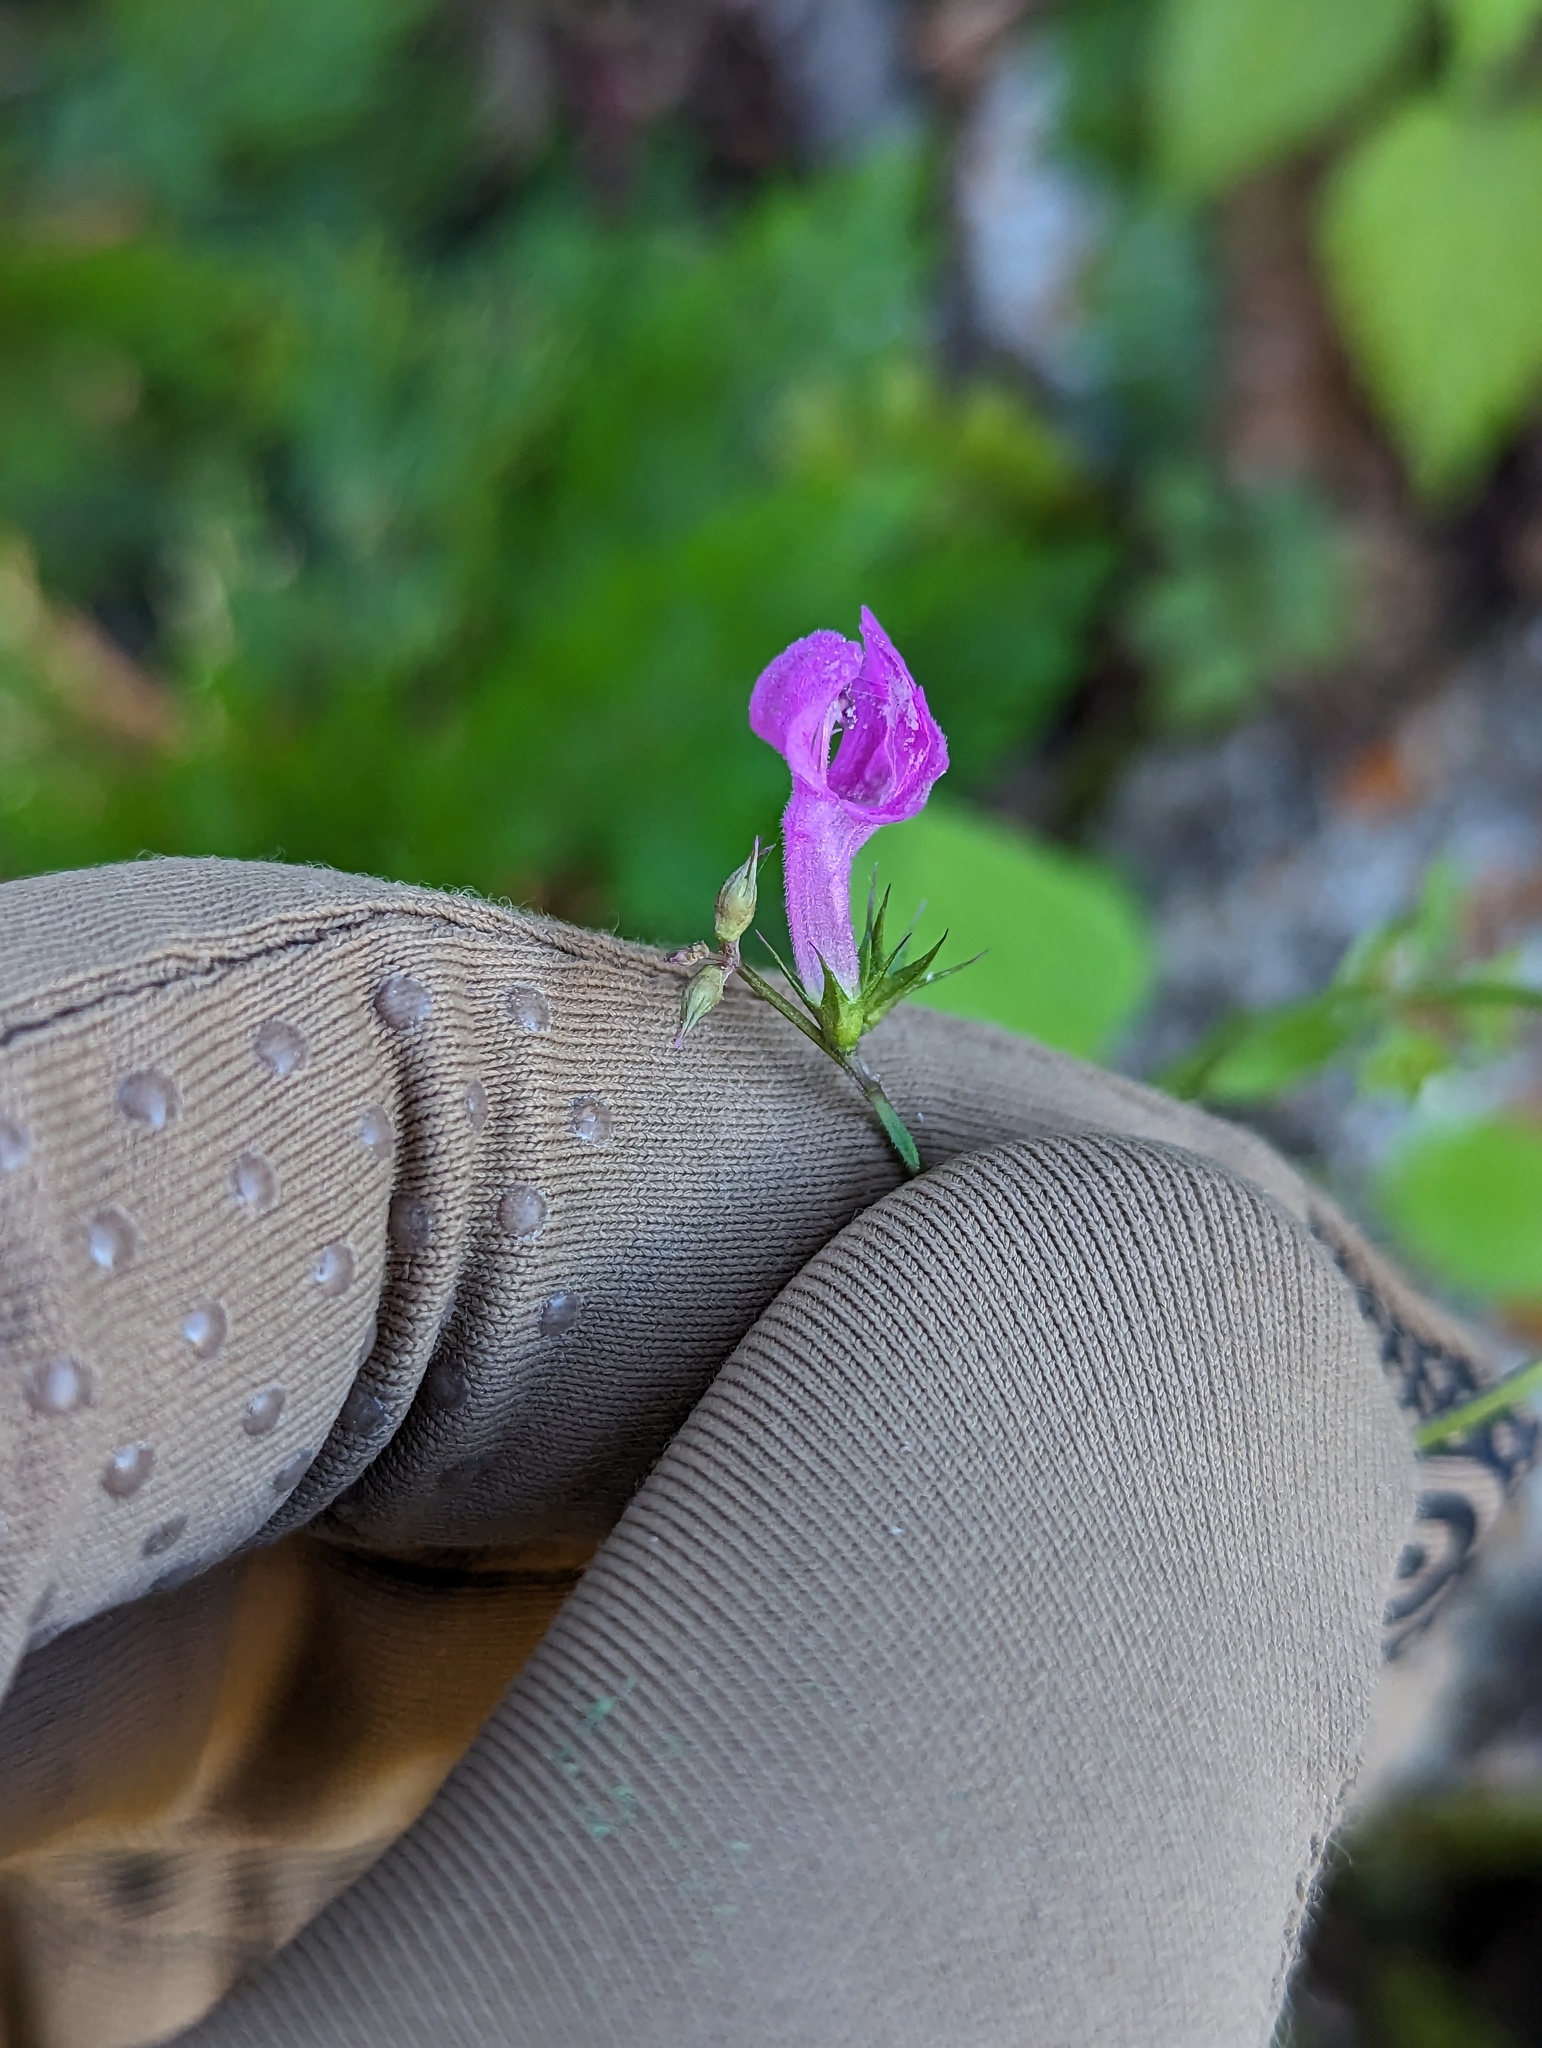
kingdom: Plantae
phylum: Tracheophyta
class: Magnoliopsida
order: Lamiales
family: Lamiaceae
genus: Stachys
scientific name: Stachys tenerrima
